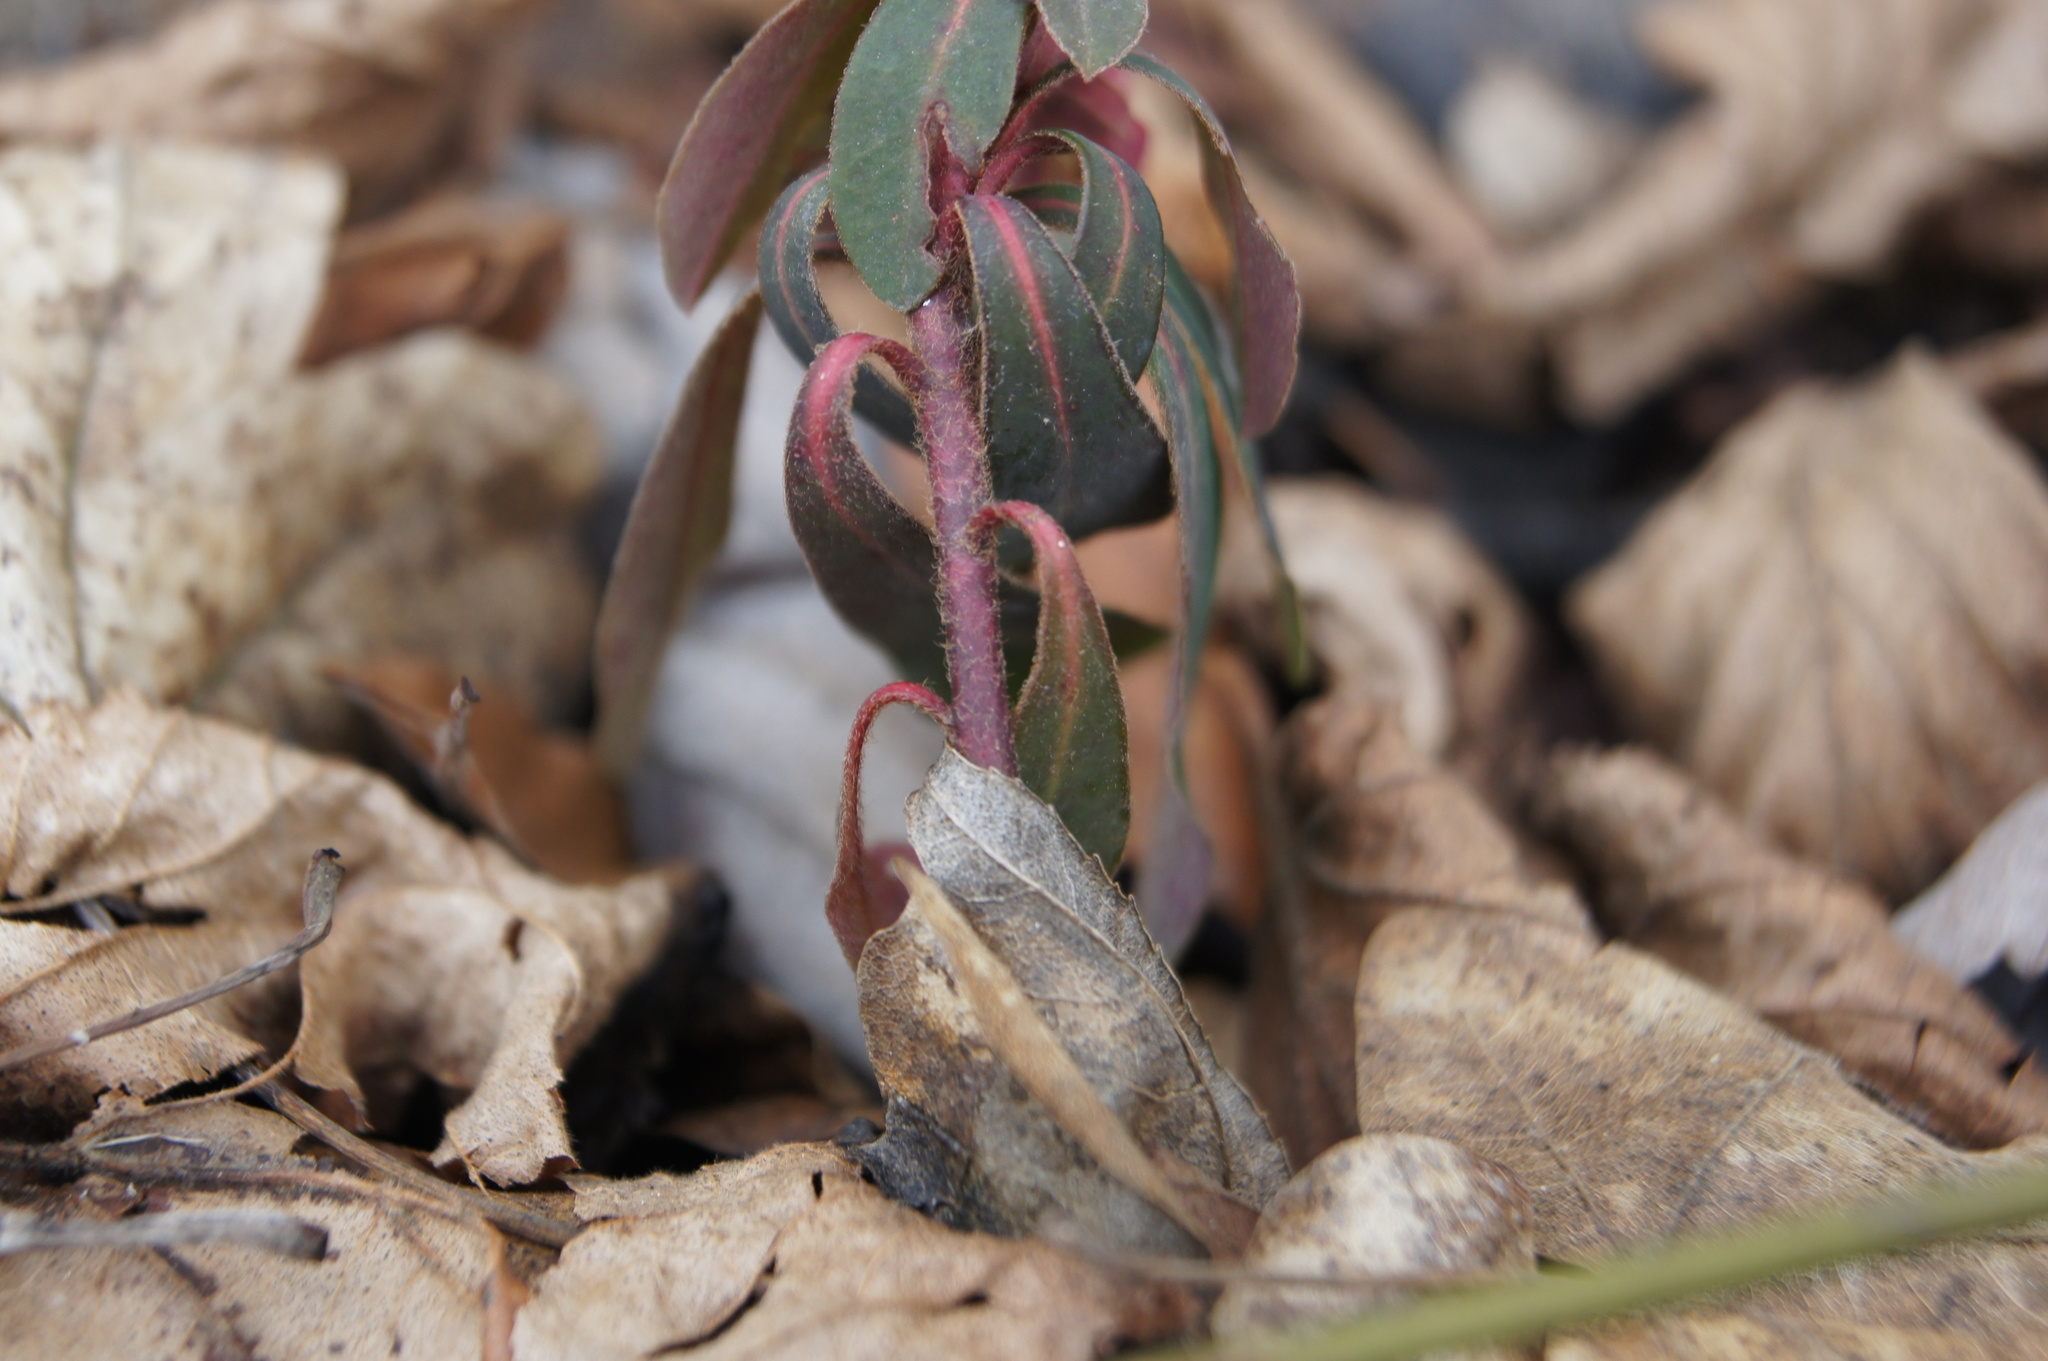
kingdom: Plantae
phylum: Tracheophyta
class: Magnoliopsida
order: Malpighiales
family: Euphorbiaceae
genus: Euphorbia
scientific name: Euphorbia amygdaloides
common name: Wood spurge
